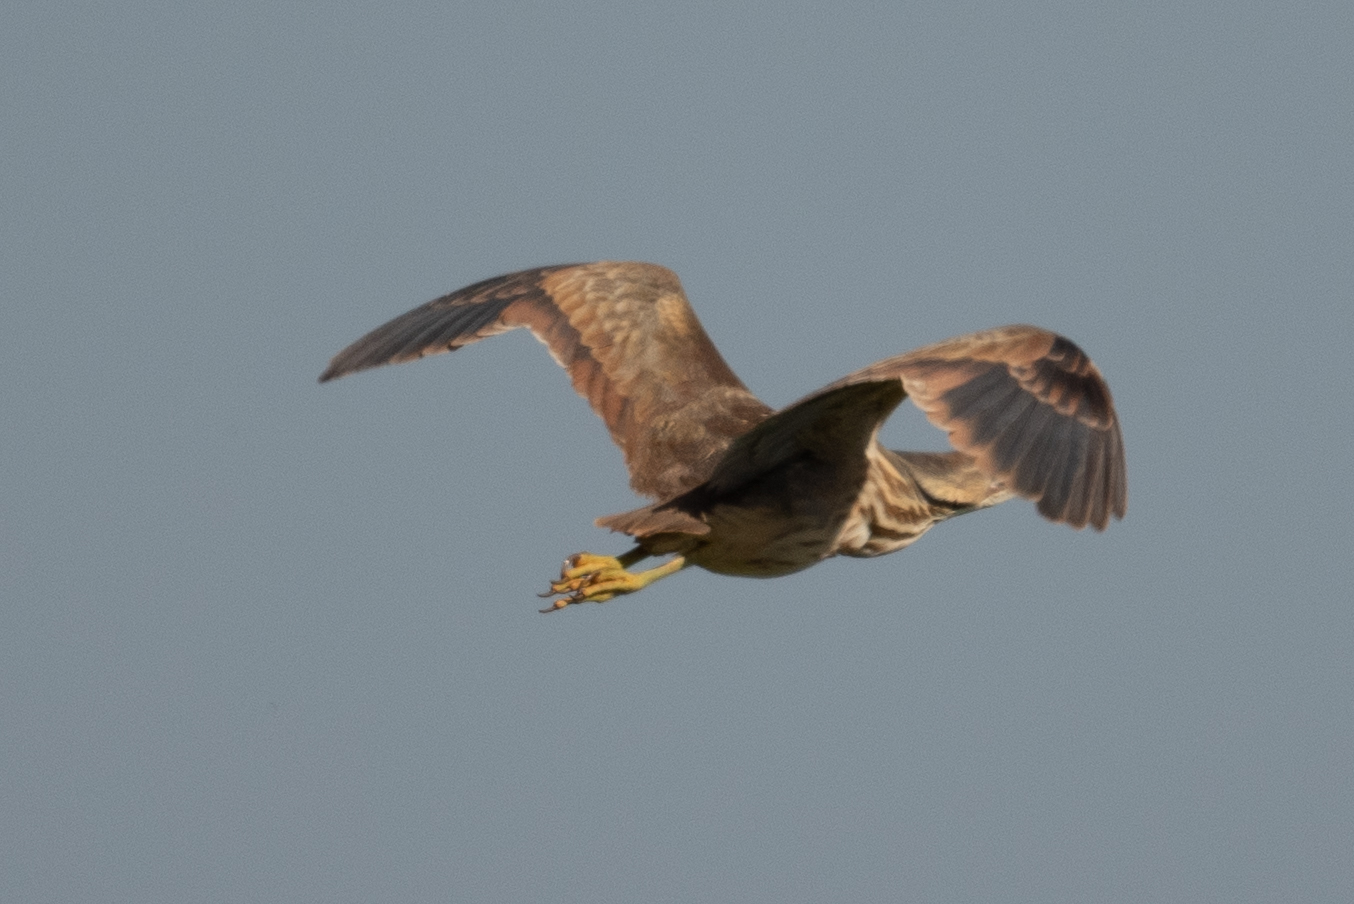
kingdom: Animalia
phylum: Chordata
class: Aves
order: Pelecaniformes
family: Ardeidae
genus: Botaurus
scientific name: Botaurus lentiginosus
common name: American bittern
